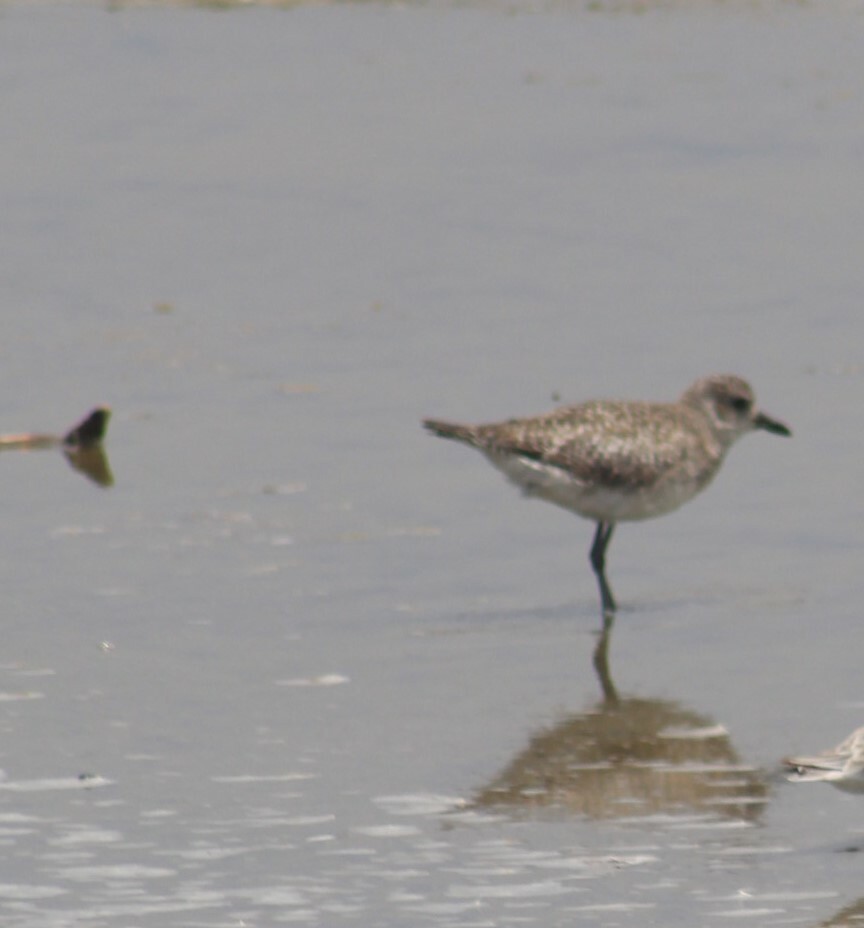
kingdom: Animalia
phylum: Chordata
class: Aves
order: Charadriiformes
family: Charadriidae
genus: Pluvialis
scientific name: Pluvialis squatarola
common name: Grey plover
